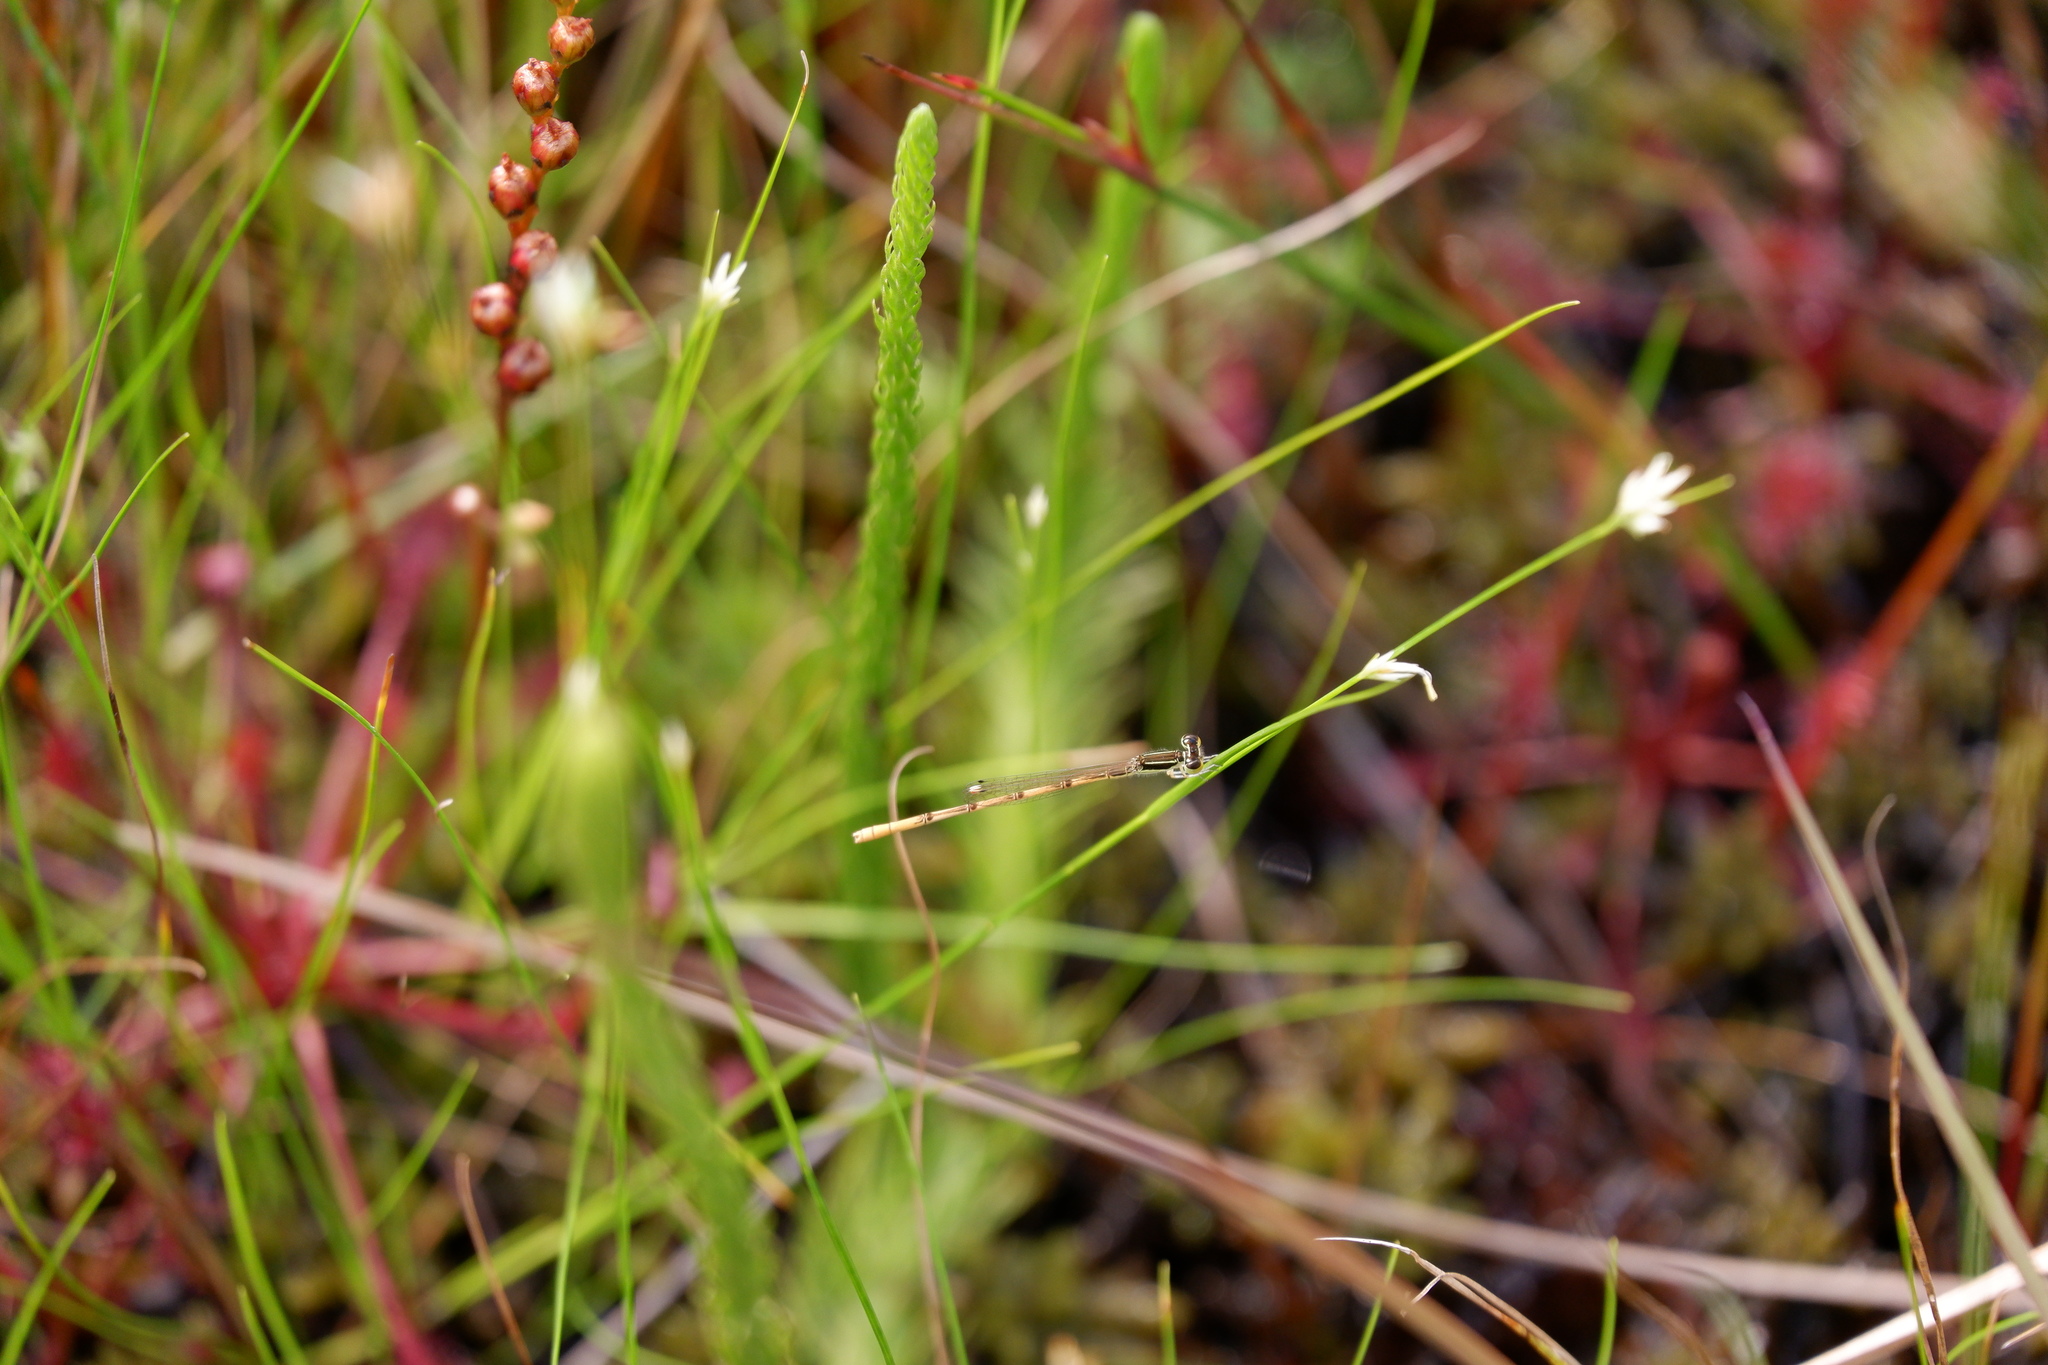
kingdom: Animalia
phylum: Arthropoda
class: Insecta
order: Odonata
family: Coenagrionidae
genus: Ischnura
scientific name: Ischnura hastata
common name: Citrine forktail
